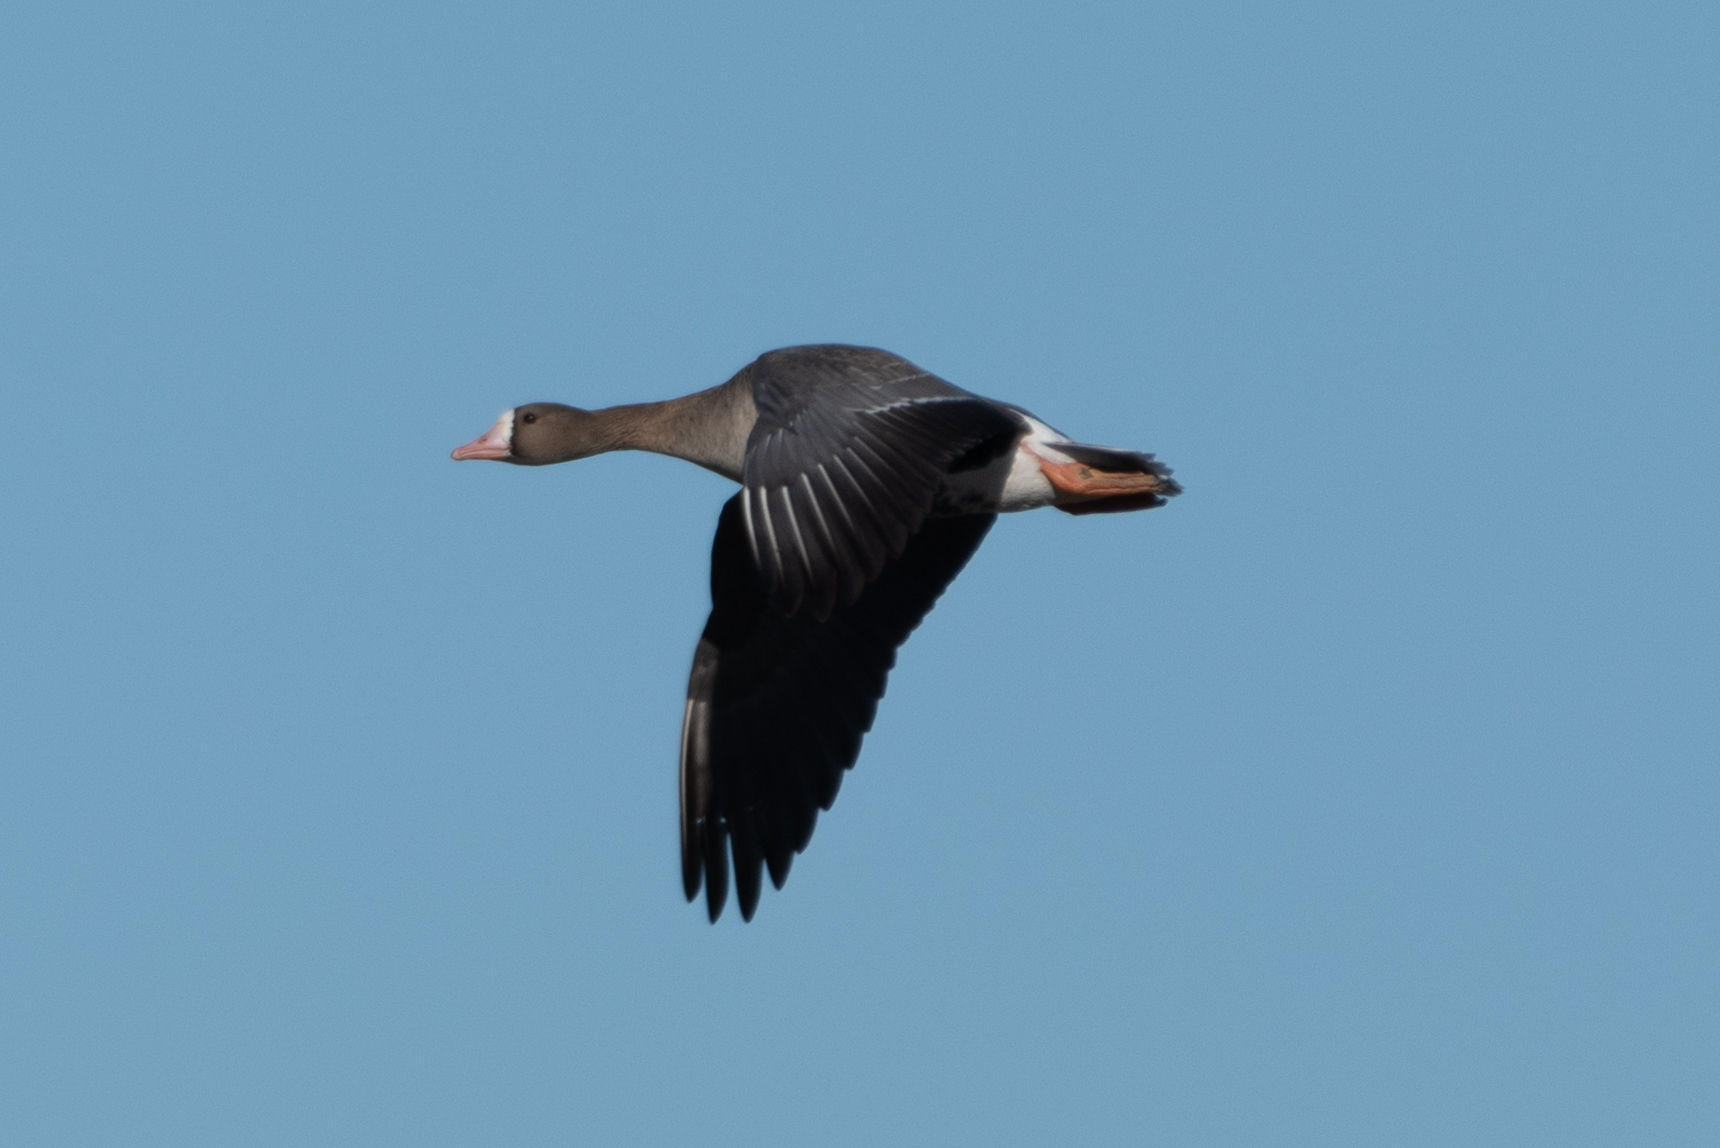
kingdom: Animalia
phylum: Chordata
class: Aves
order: Anseriformes
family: Anatidae
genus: Anser
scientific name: Anser albifrons
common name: Greater white-fronted goose
